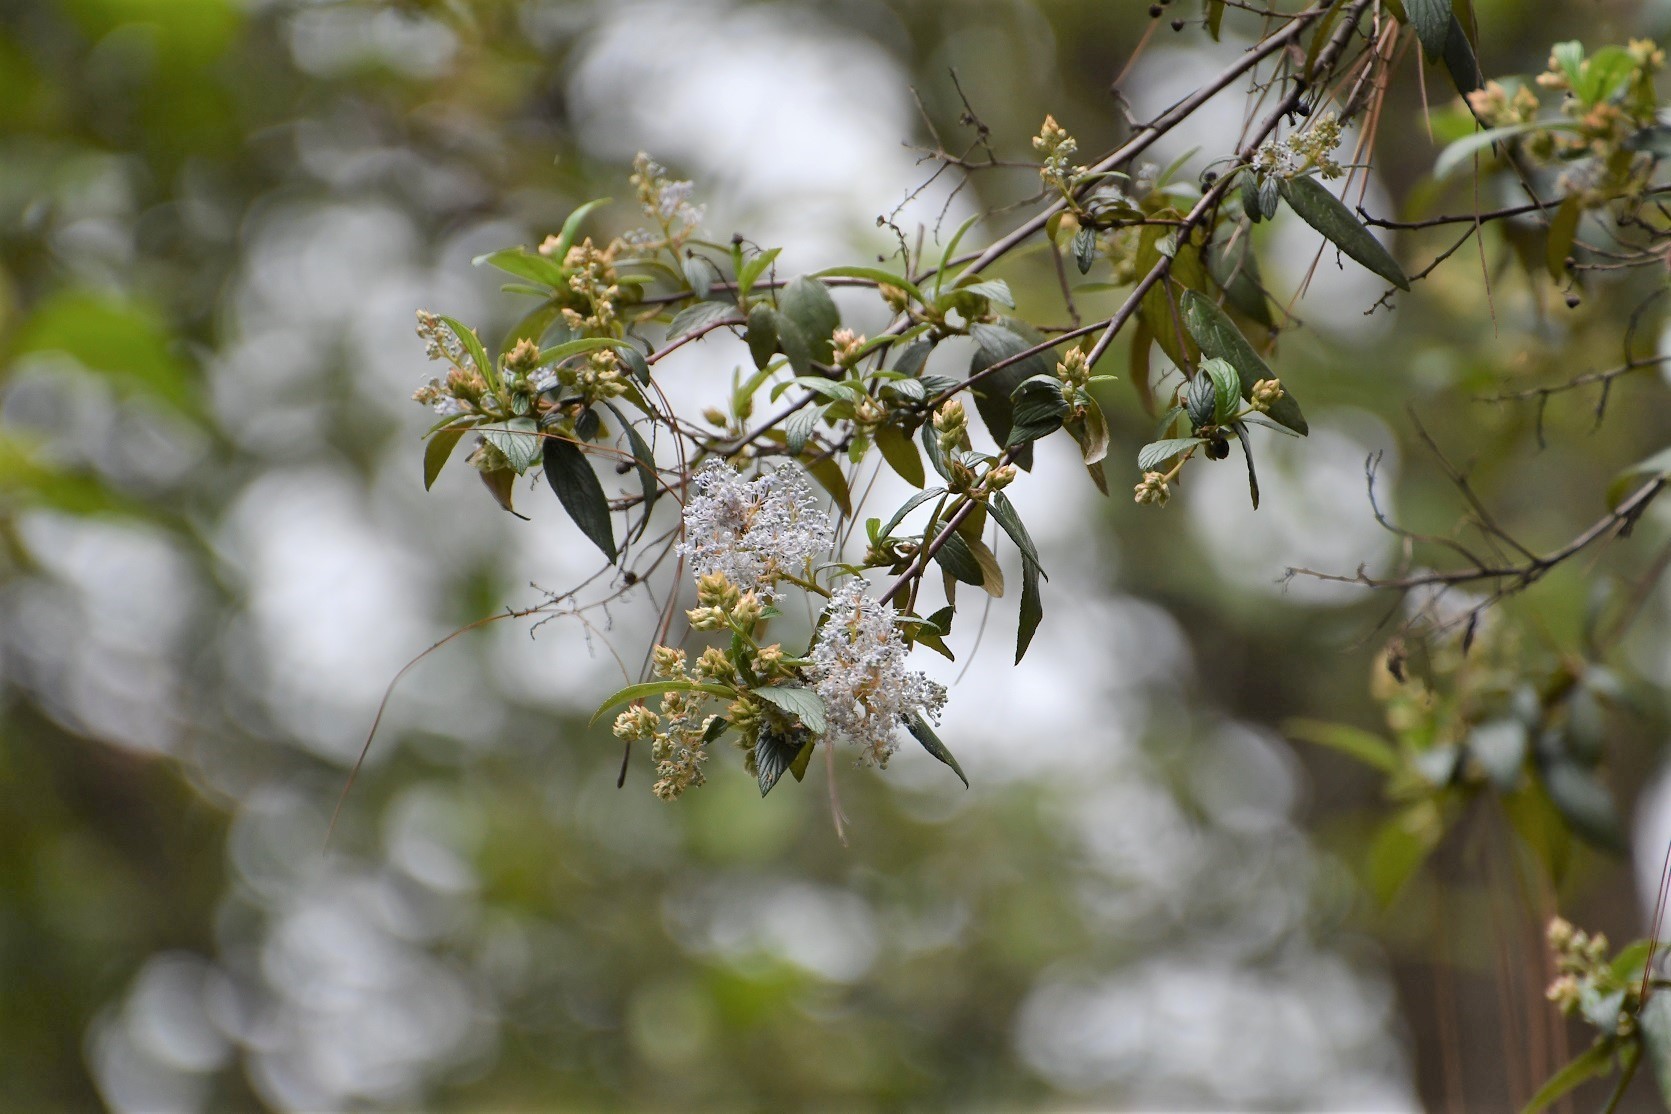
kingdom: Plantae
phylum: Tracheophyta
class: Magnoliopsida
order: Rosales
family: Rhamnaceae
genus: Ceanothus
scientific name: Ceanothus caeruleus
